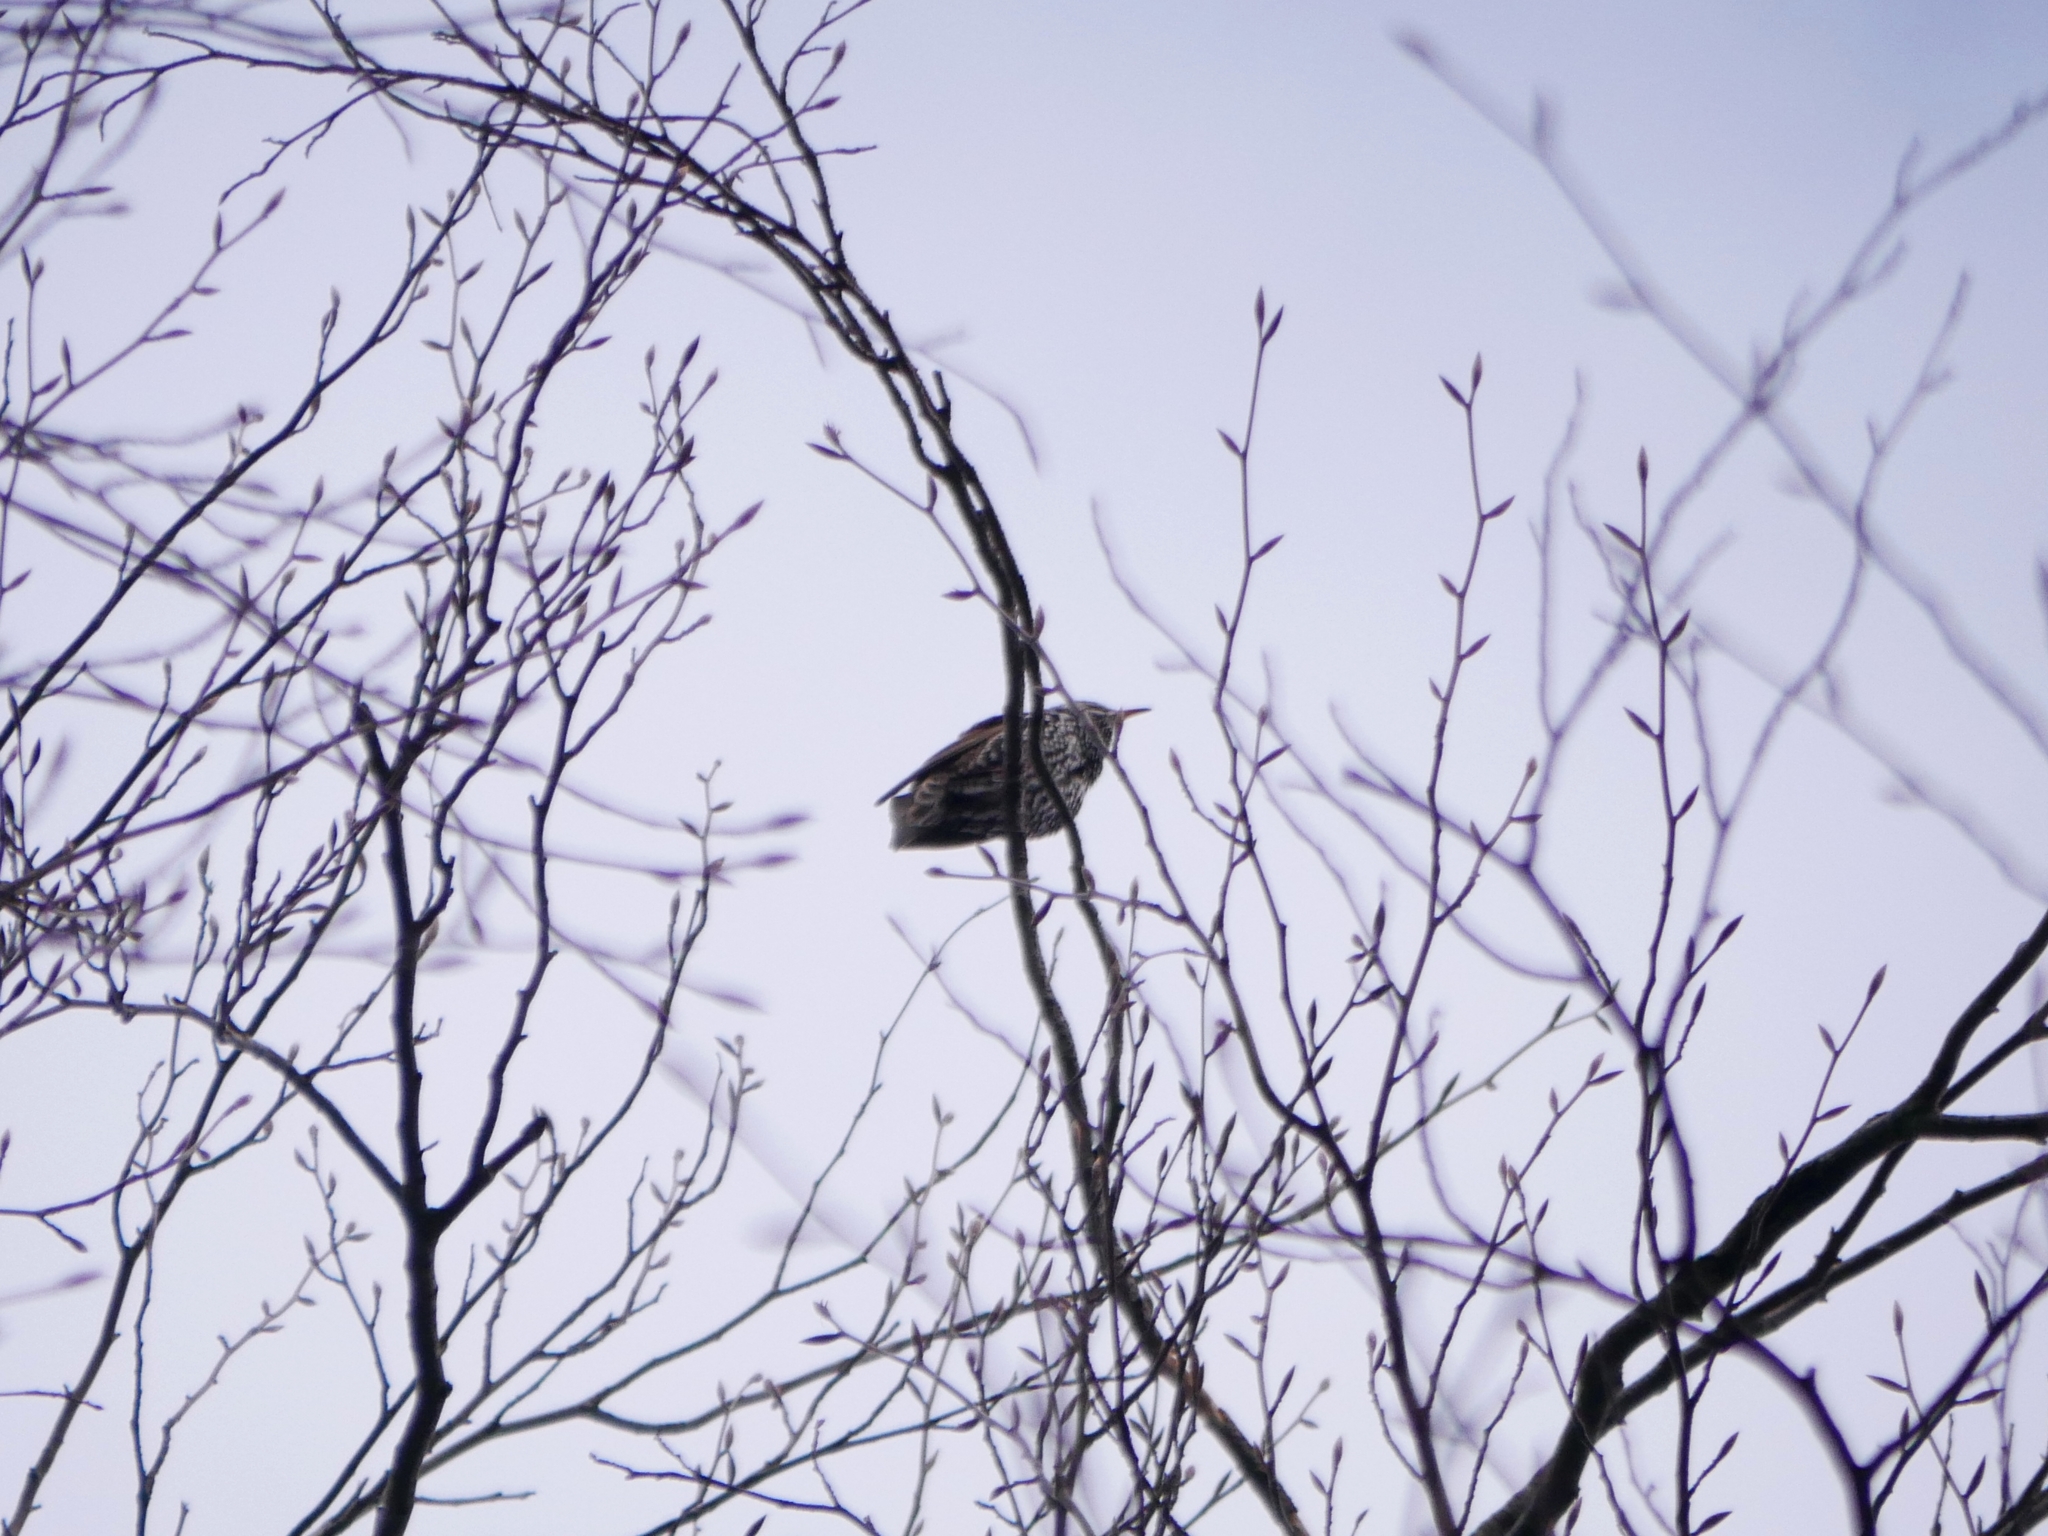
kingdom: Animalia
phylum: Chordata
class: Aves
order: Passeriformes
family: Sturnidae
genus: Sturnus
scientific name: Sturnus vulgaris
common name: Common starling
